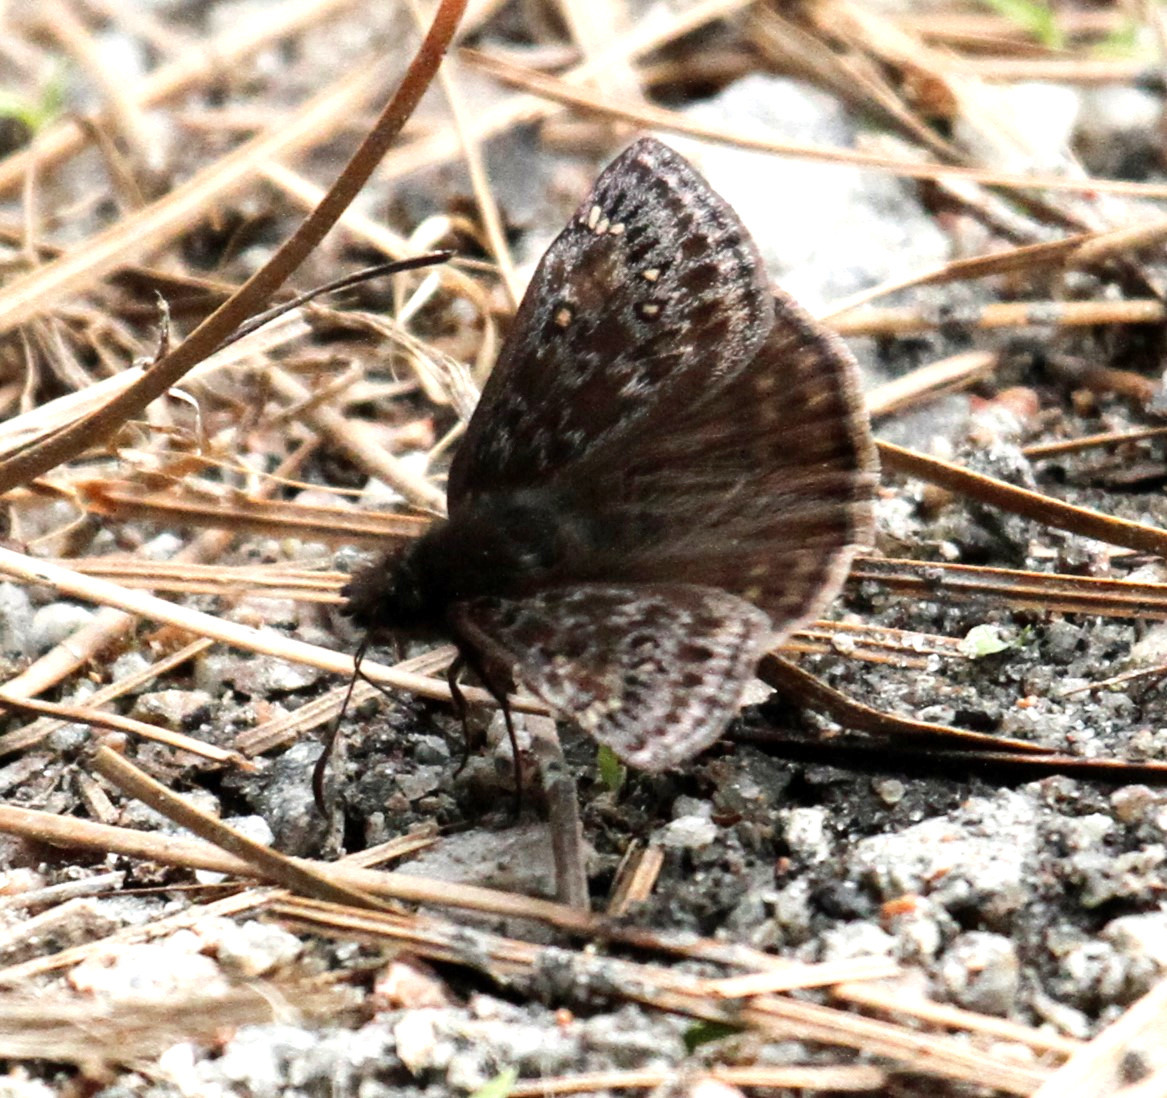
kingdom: Animalia
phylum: Arthropoda
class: Insecta
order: Lepidoptera
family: Hesperiidae
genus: Erynnis
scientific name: Erynnis juvenalis
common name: Juvenal's duskywing
